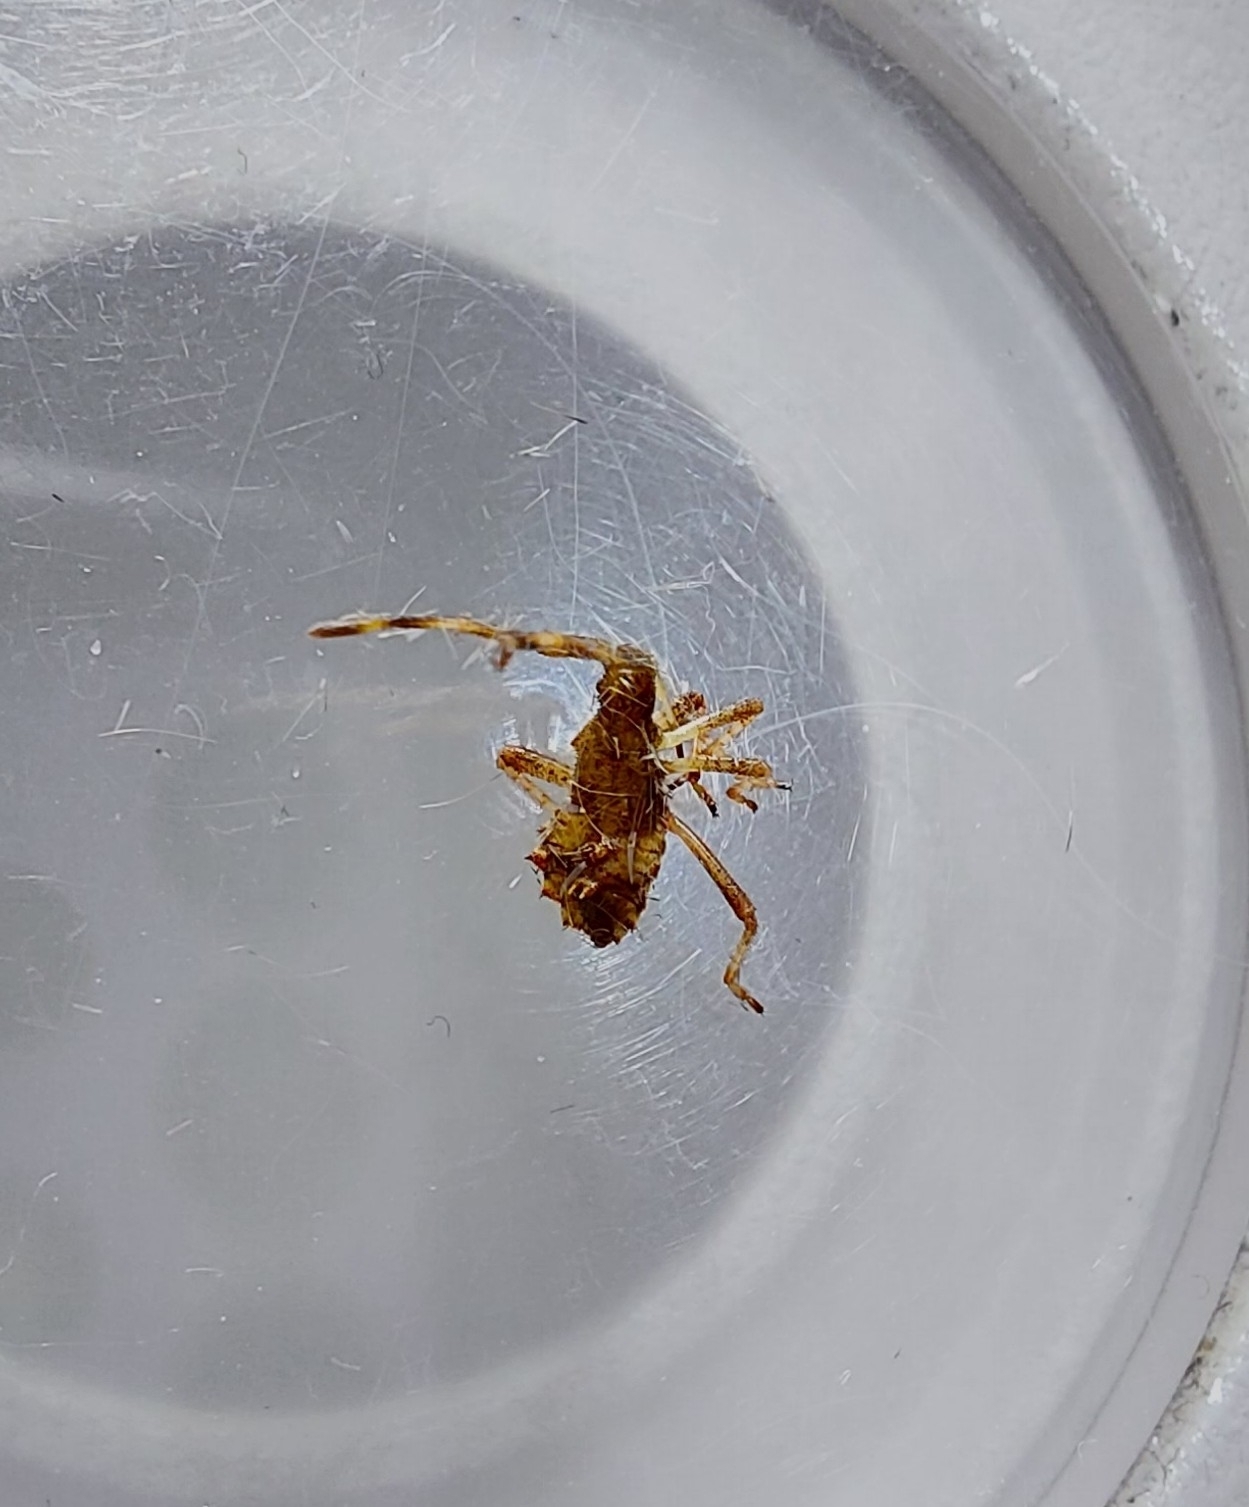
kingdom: Animalia
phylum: Arthropoda
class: Insecta
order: Hemiptera
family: Coreidae
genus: Coreus
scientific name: Coreus marginatus
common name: Dock bug
